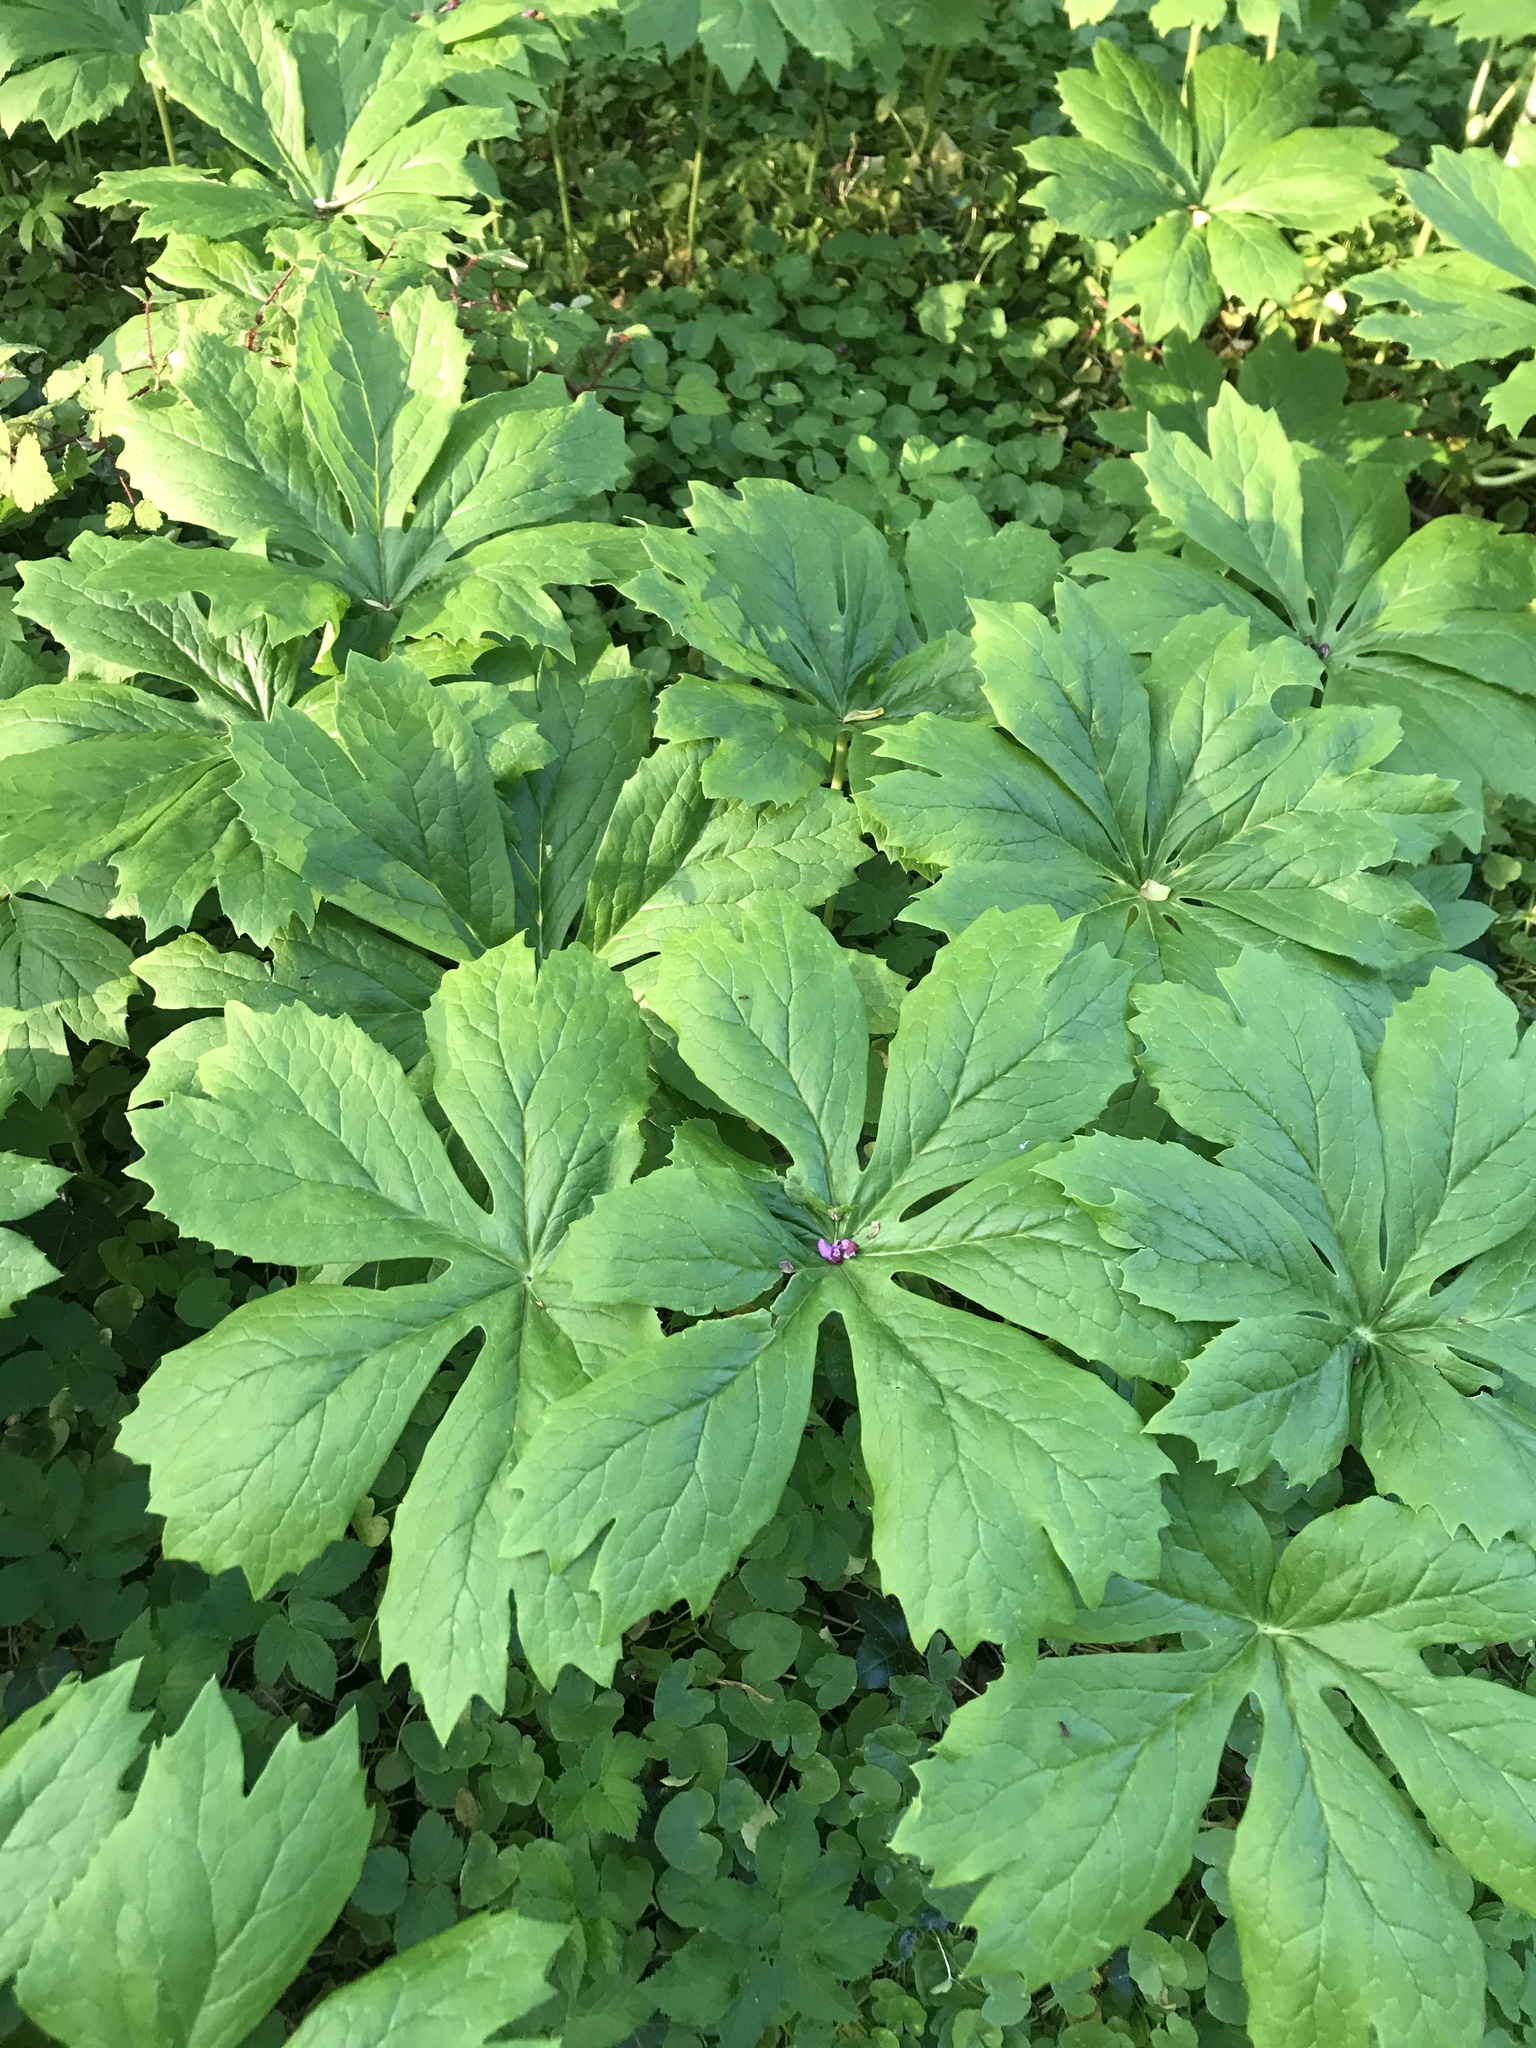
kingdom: Plantae
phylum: Tracheophyta
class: Magnoliopsida
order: Ranunculales
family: Berberidaceae
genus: Podophyllum
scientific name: Podophyllum peltatum
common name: Wild mandrake
